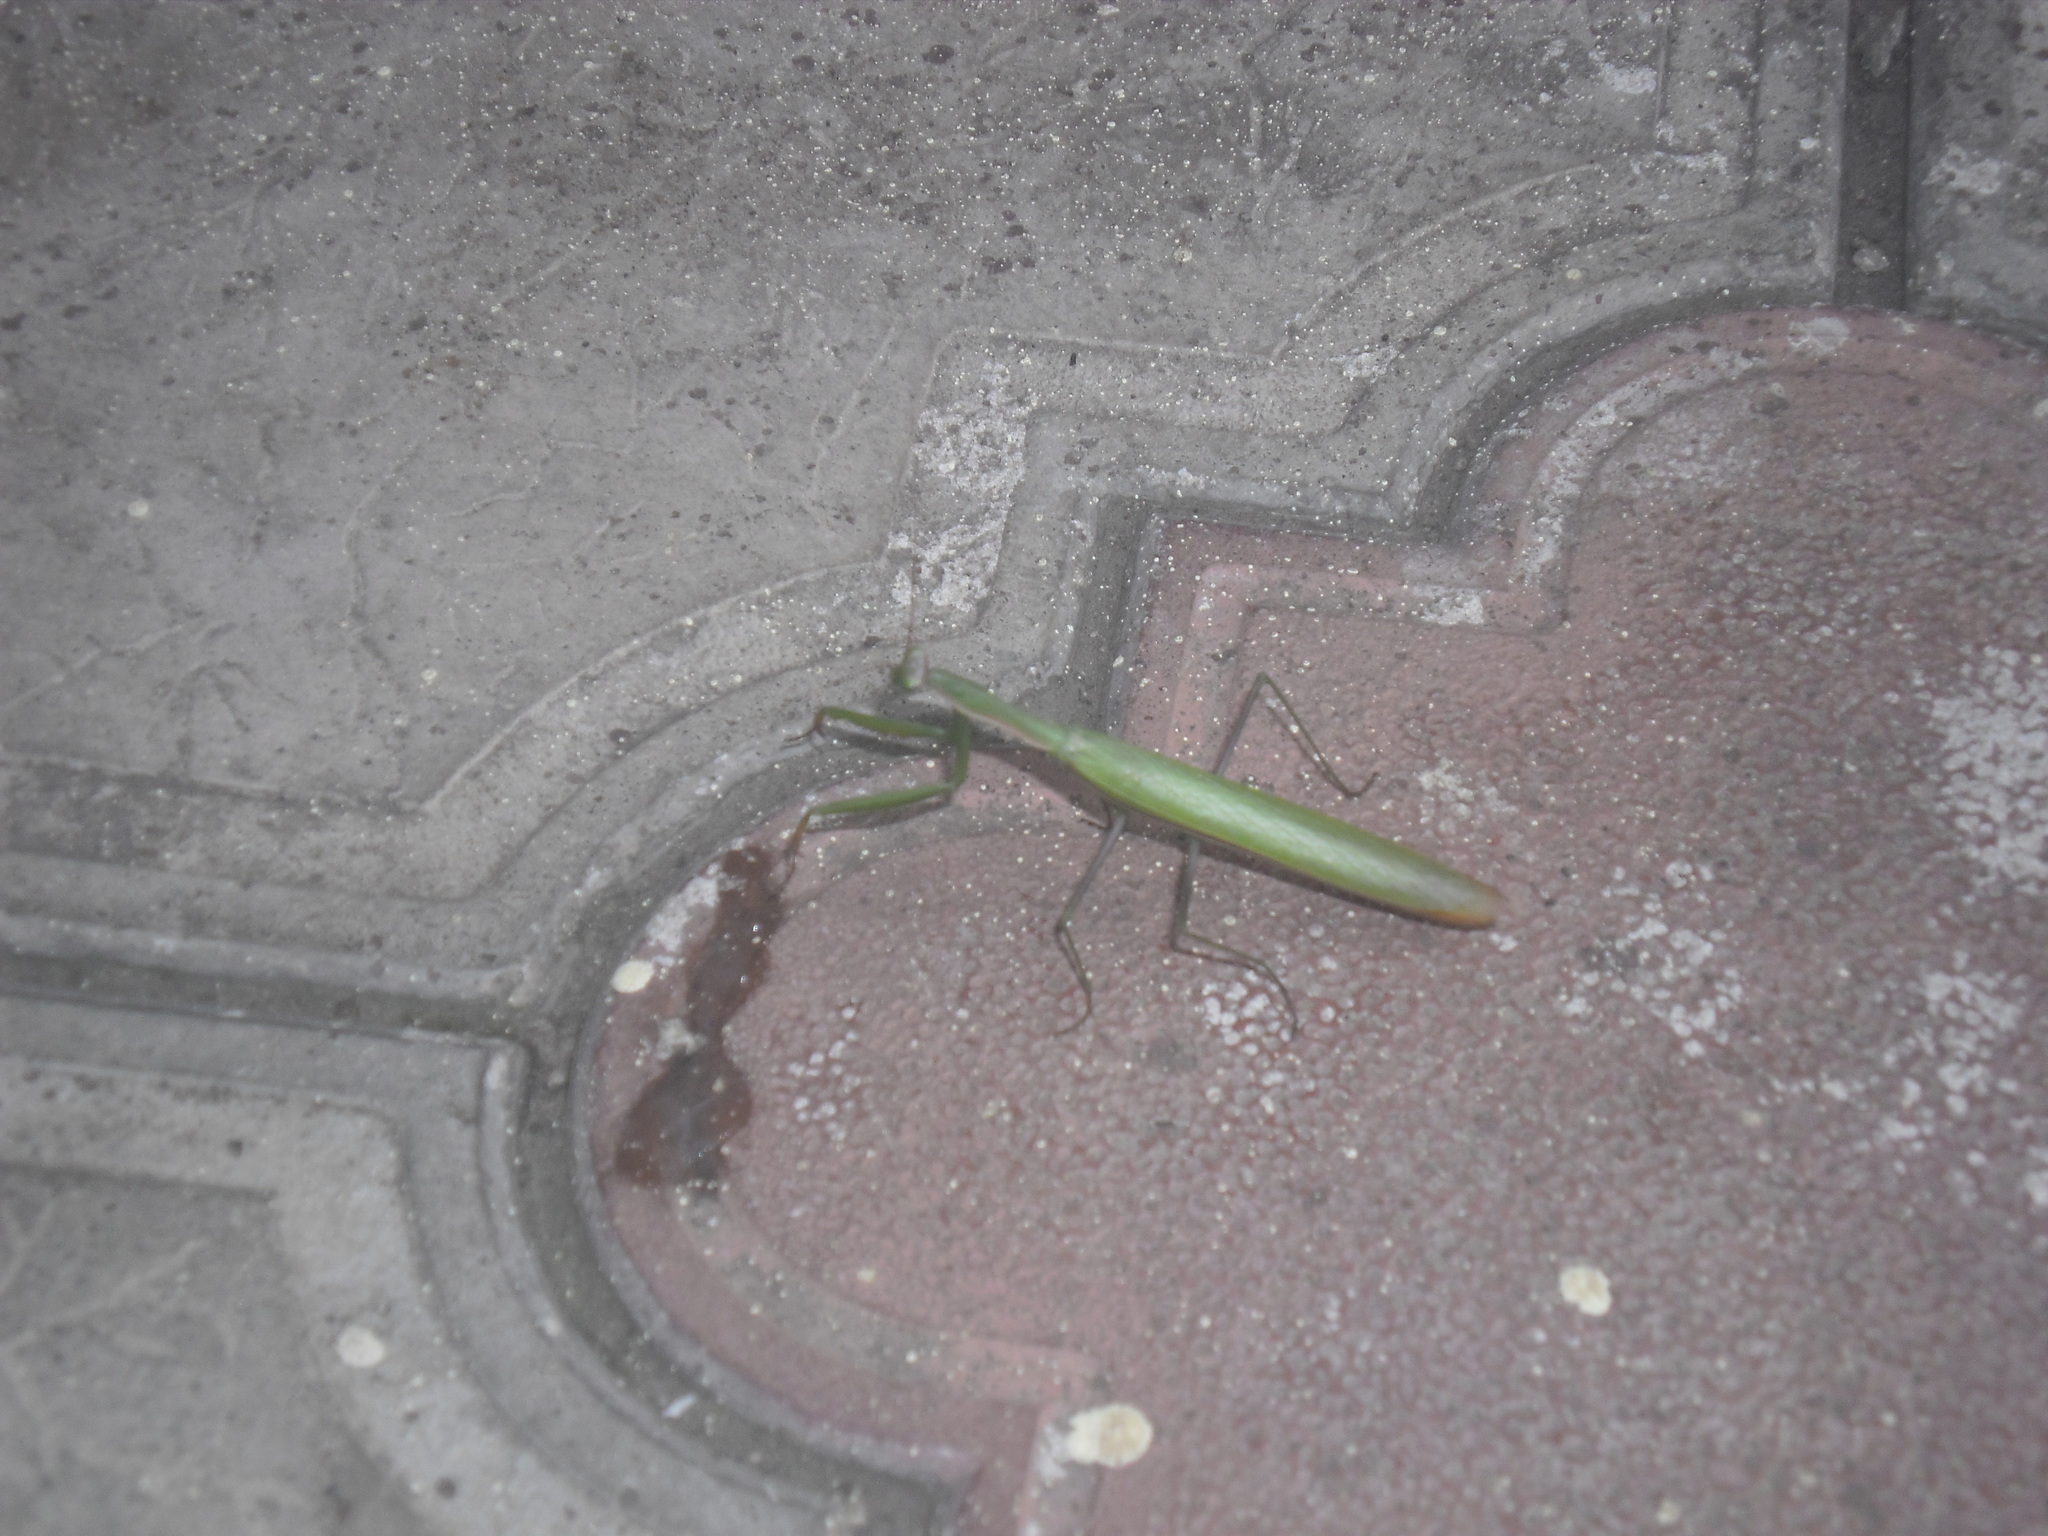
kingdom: Animalia
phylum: Arthropoda
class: Insecta
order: Mantodea
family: Mantidae
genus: Mantis
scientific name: Mantis religiosa
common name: Praying mantis
